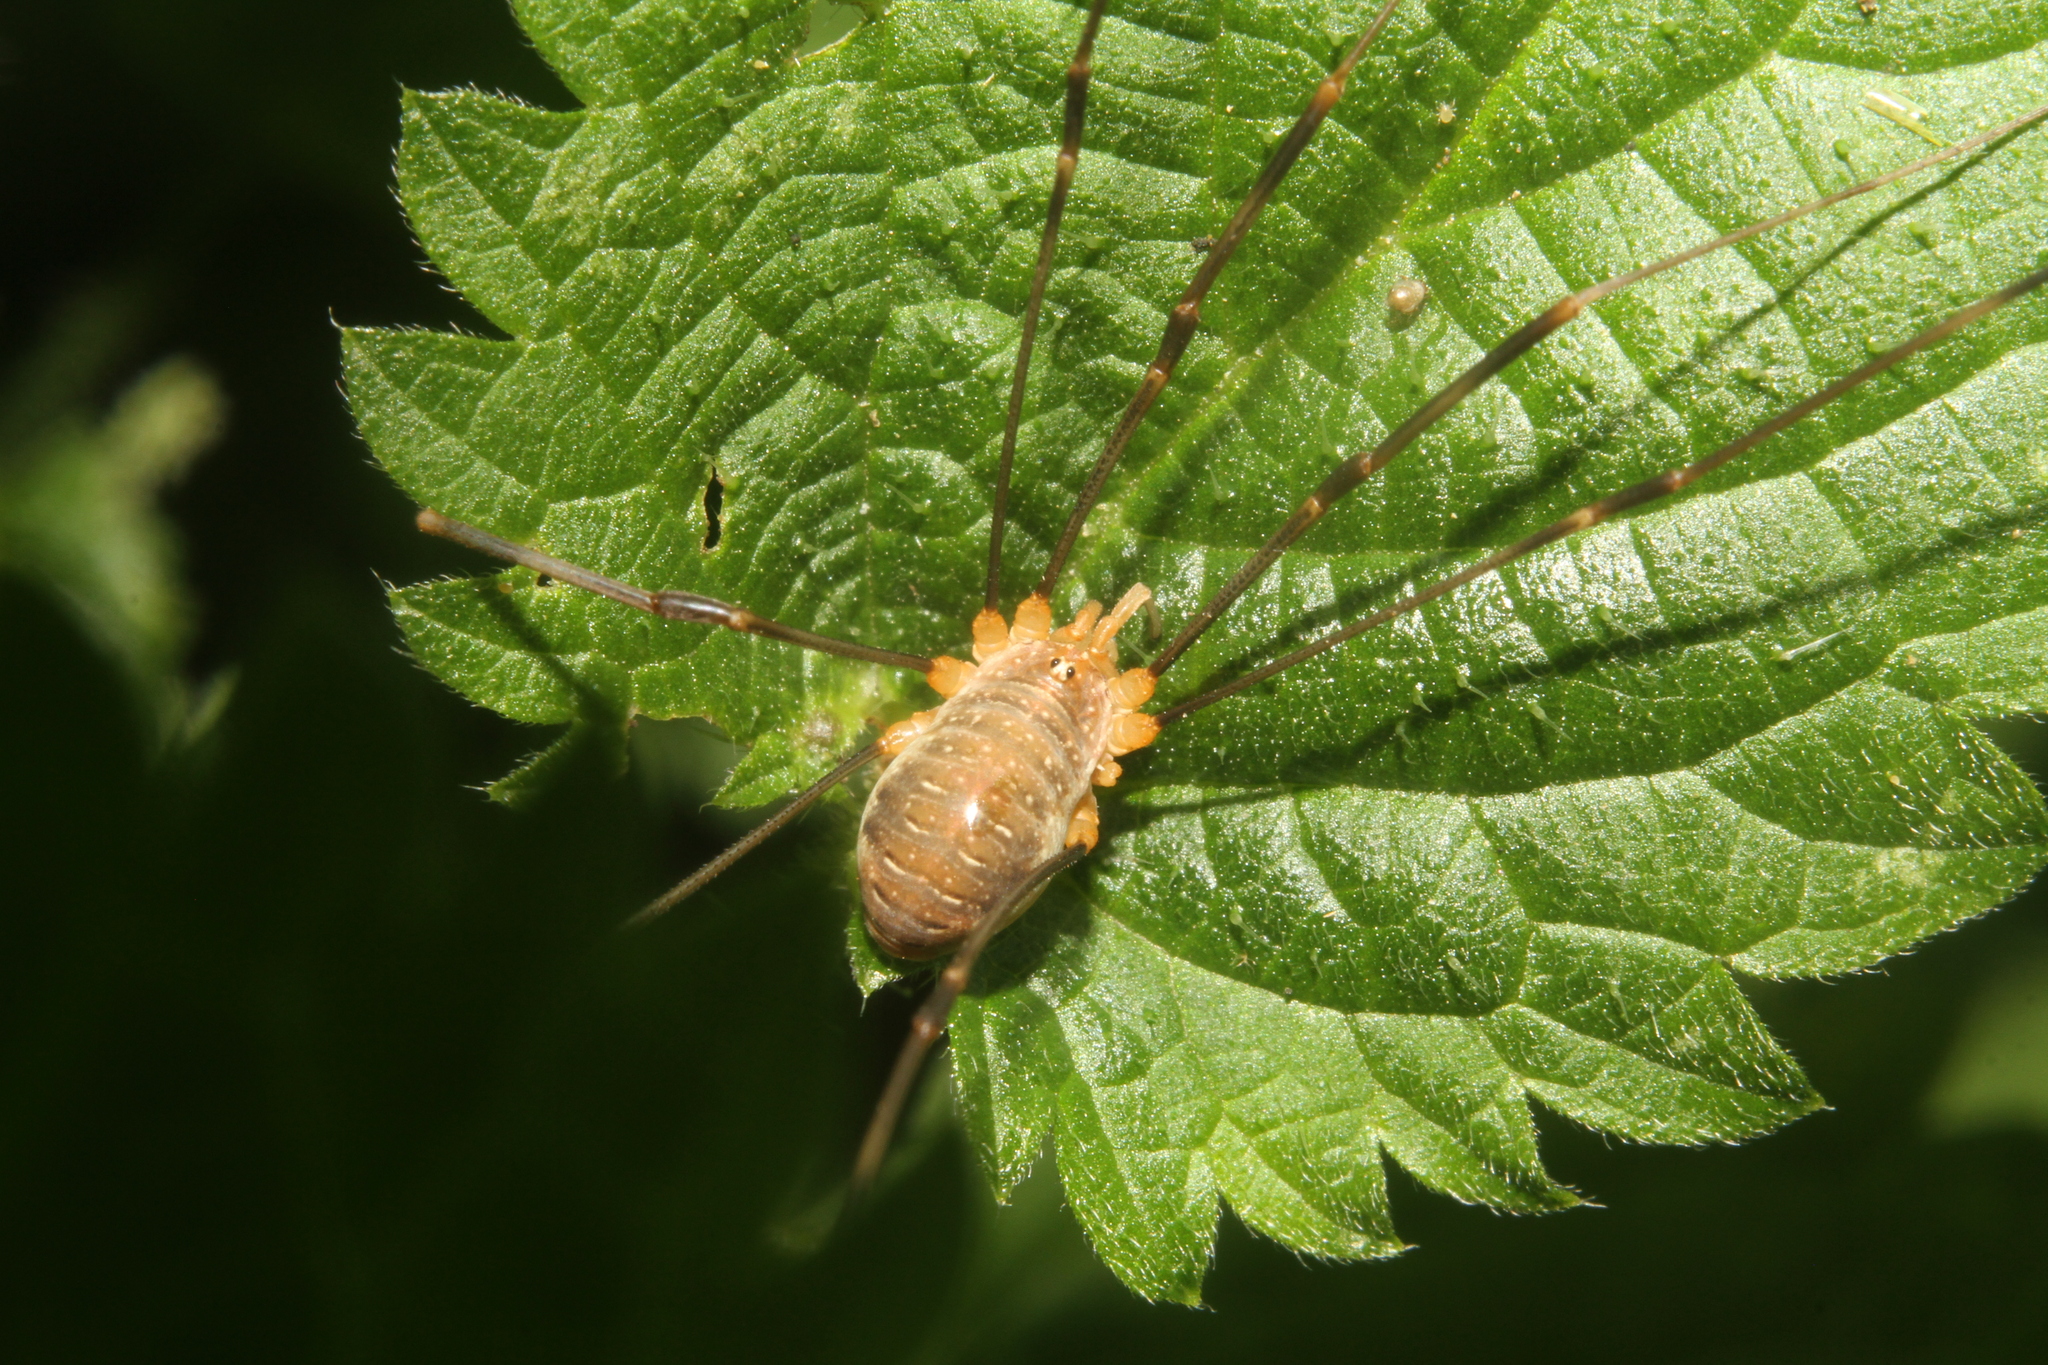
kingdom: Animalia
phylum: Arthropoda
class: Arachnida
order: Opiliones
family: Phalangiidae
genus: Opilio
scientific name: Opilio canestrinii
